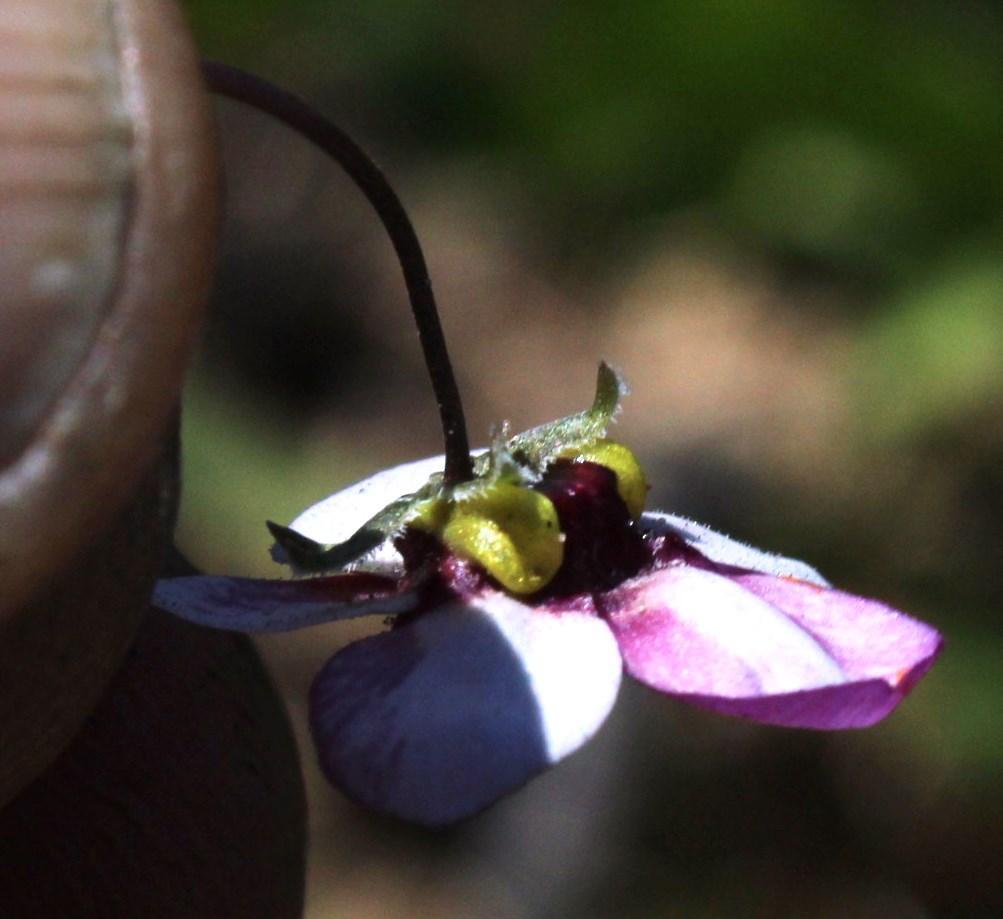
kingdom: Plantae
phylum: Tracheophyta
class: Magnoliopsida
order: Lamiales
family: Scrophulariaceae
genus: Diascia
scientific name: Diascia capensis
